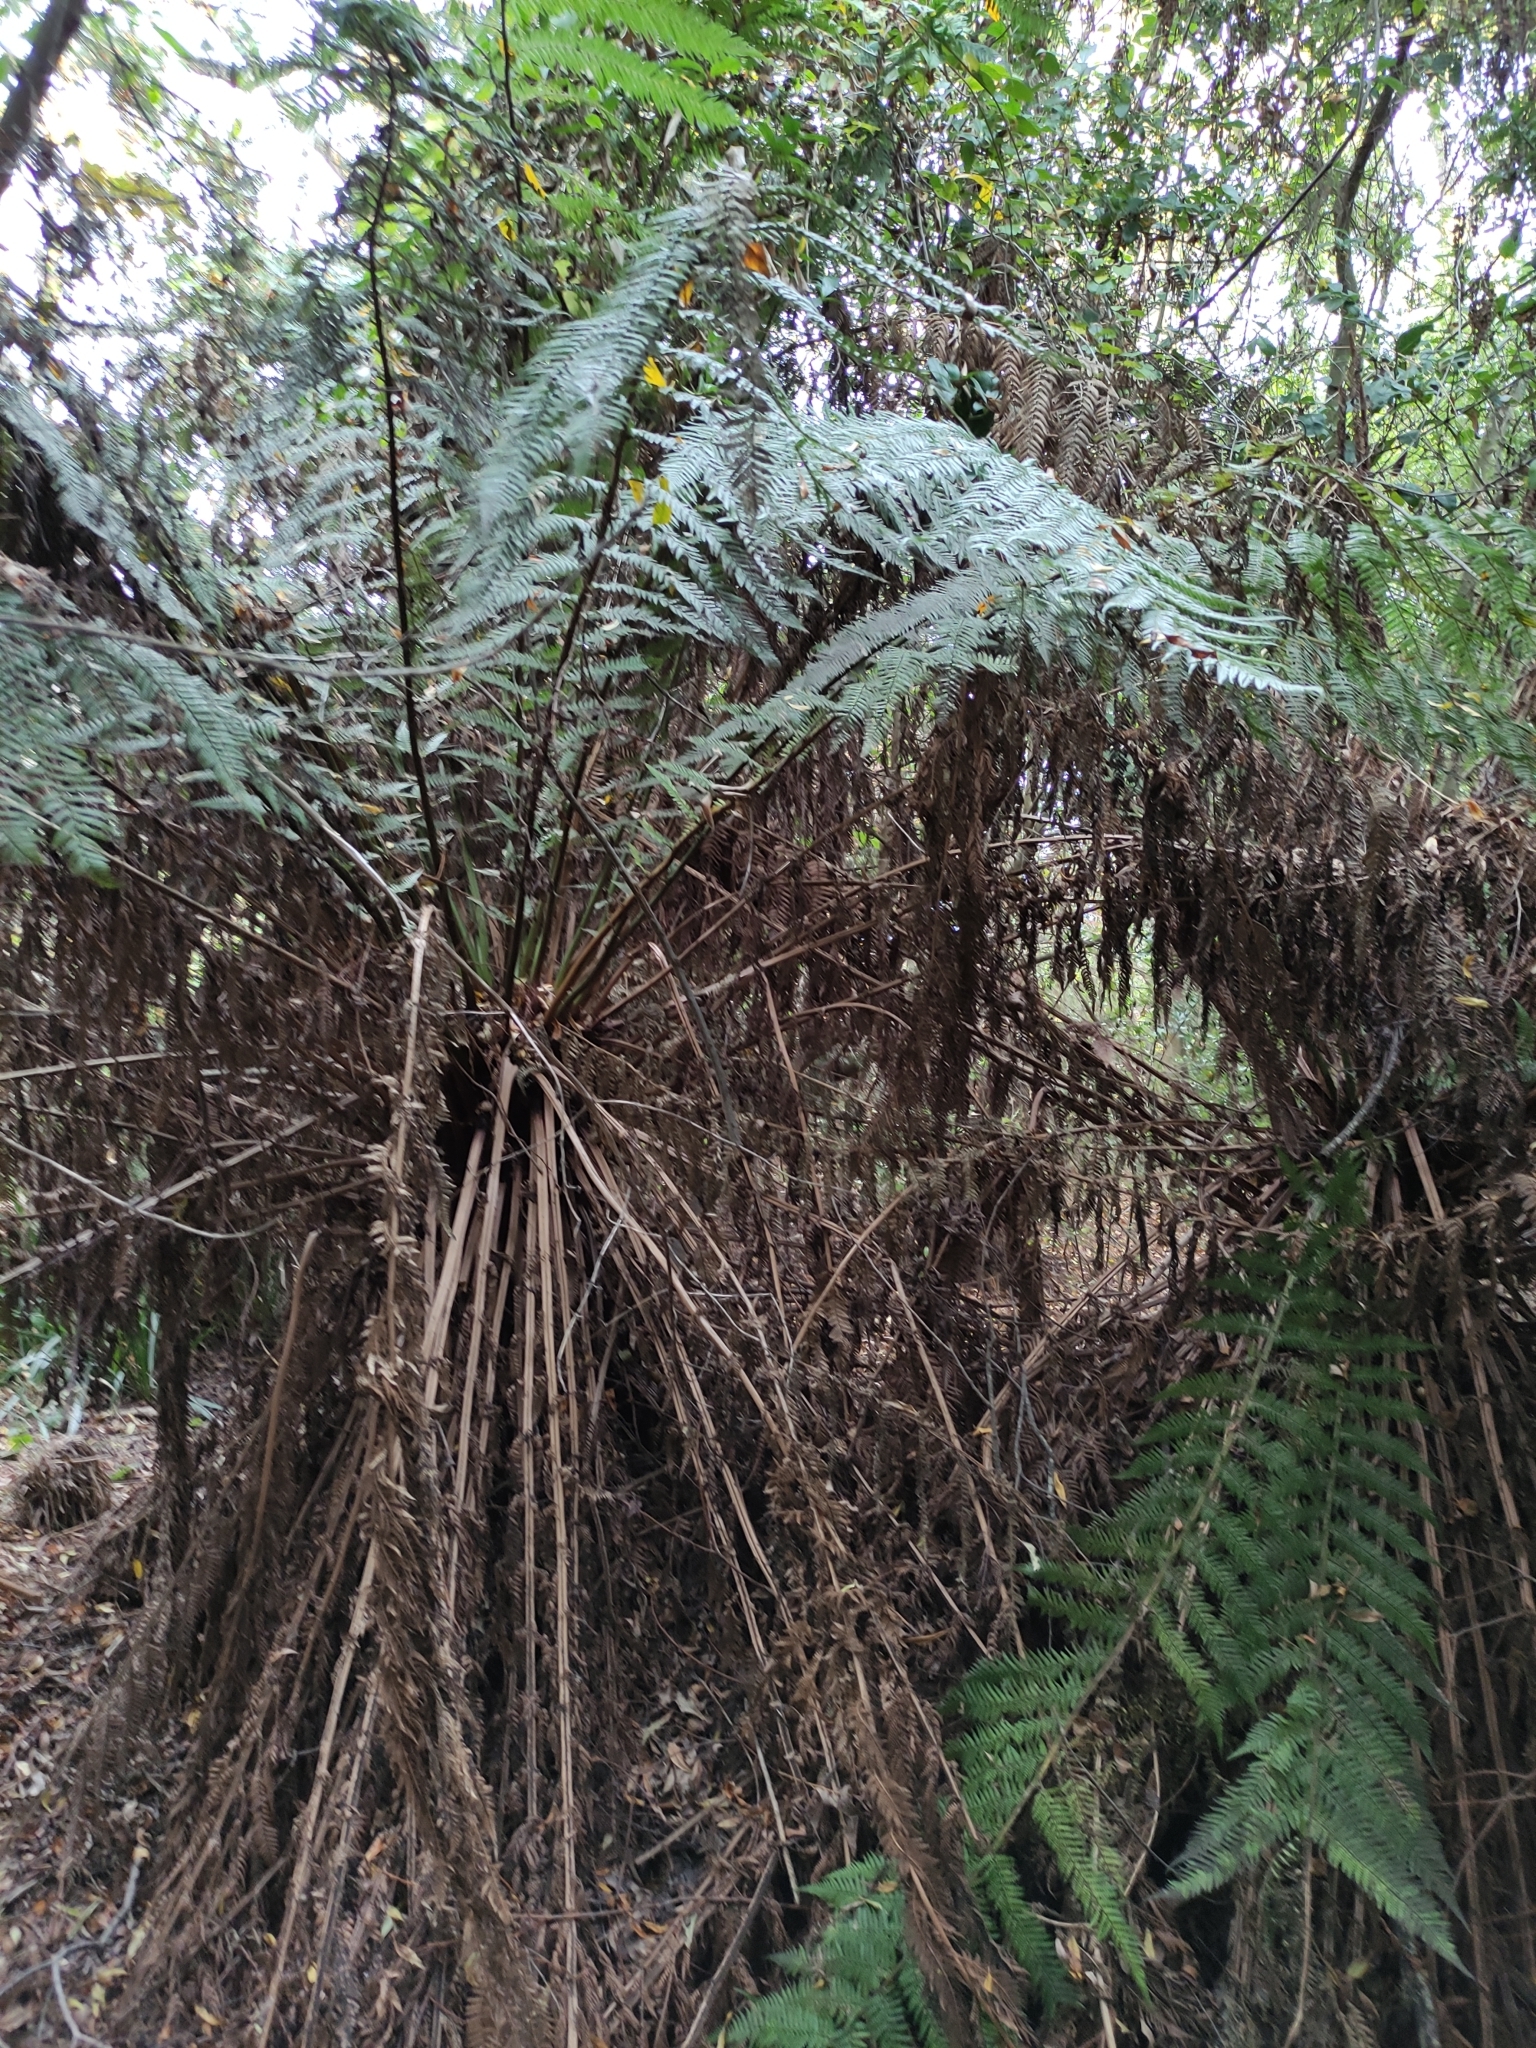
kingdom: Plantae
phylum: Tracheophyta
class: Polypodiopsida
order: Cyatheales
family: Dicksoniaceae
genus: Dicksonia
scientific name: Dicksonia squarrosa
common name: Hard treefern
